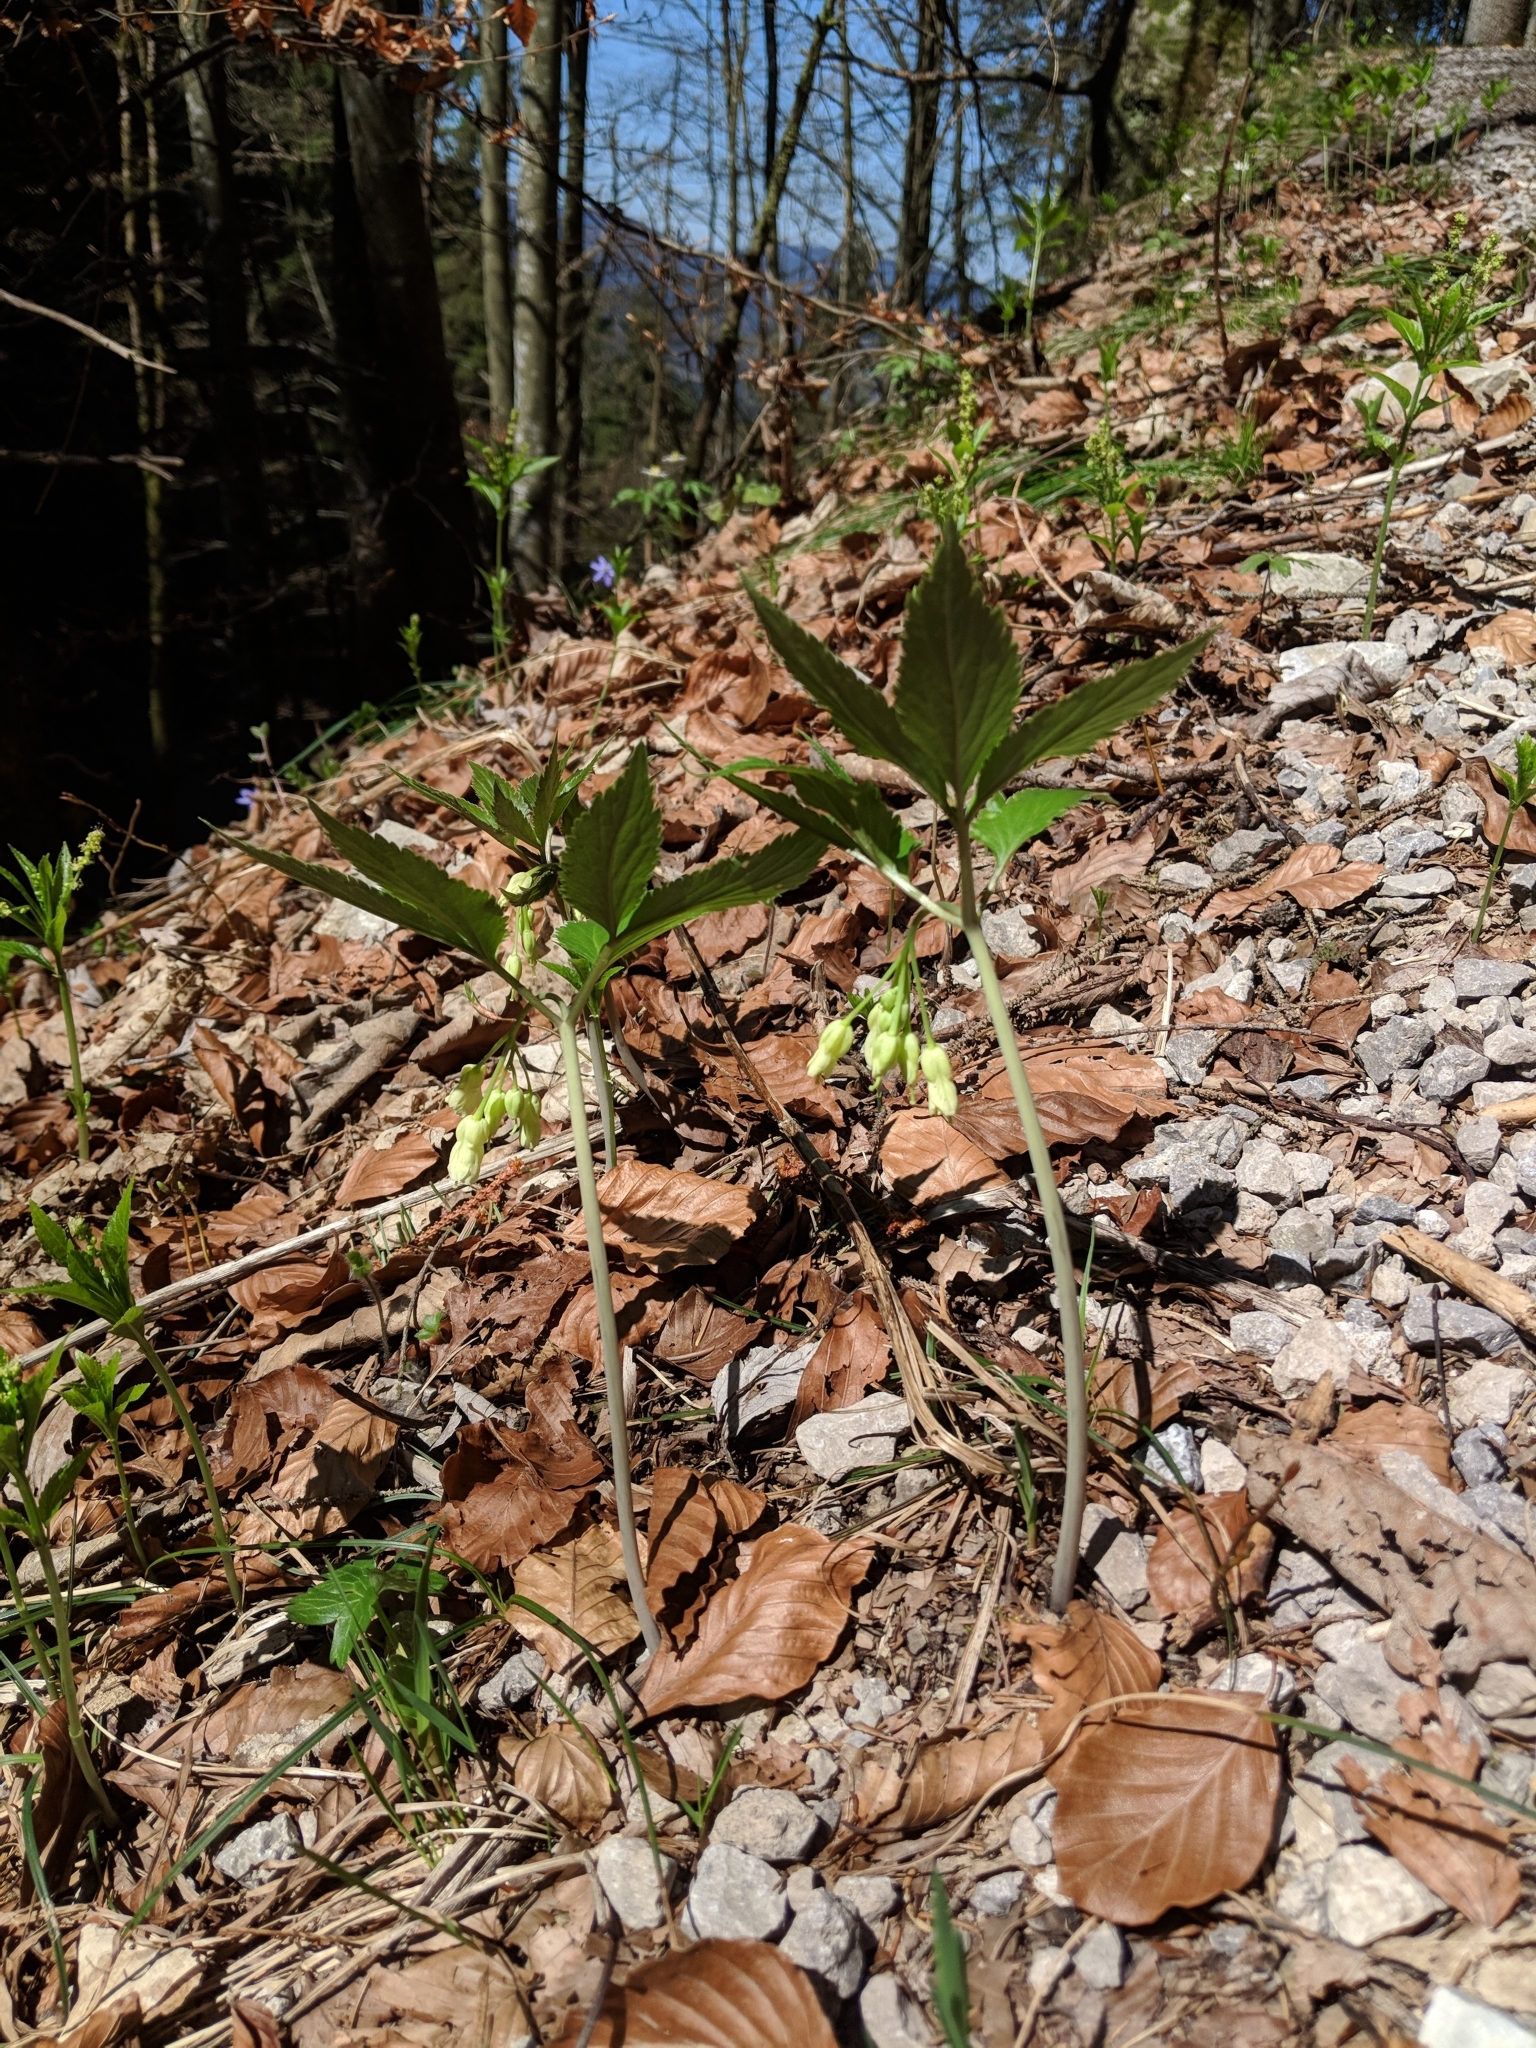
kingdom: Plantae
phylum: Tracheophyta
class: Magnoliopsida
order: Brassicales
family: Brassicaceae
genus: Cardamine
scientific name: Cardamine enneaphyllos
